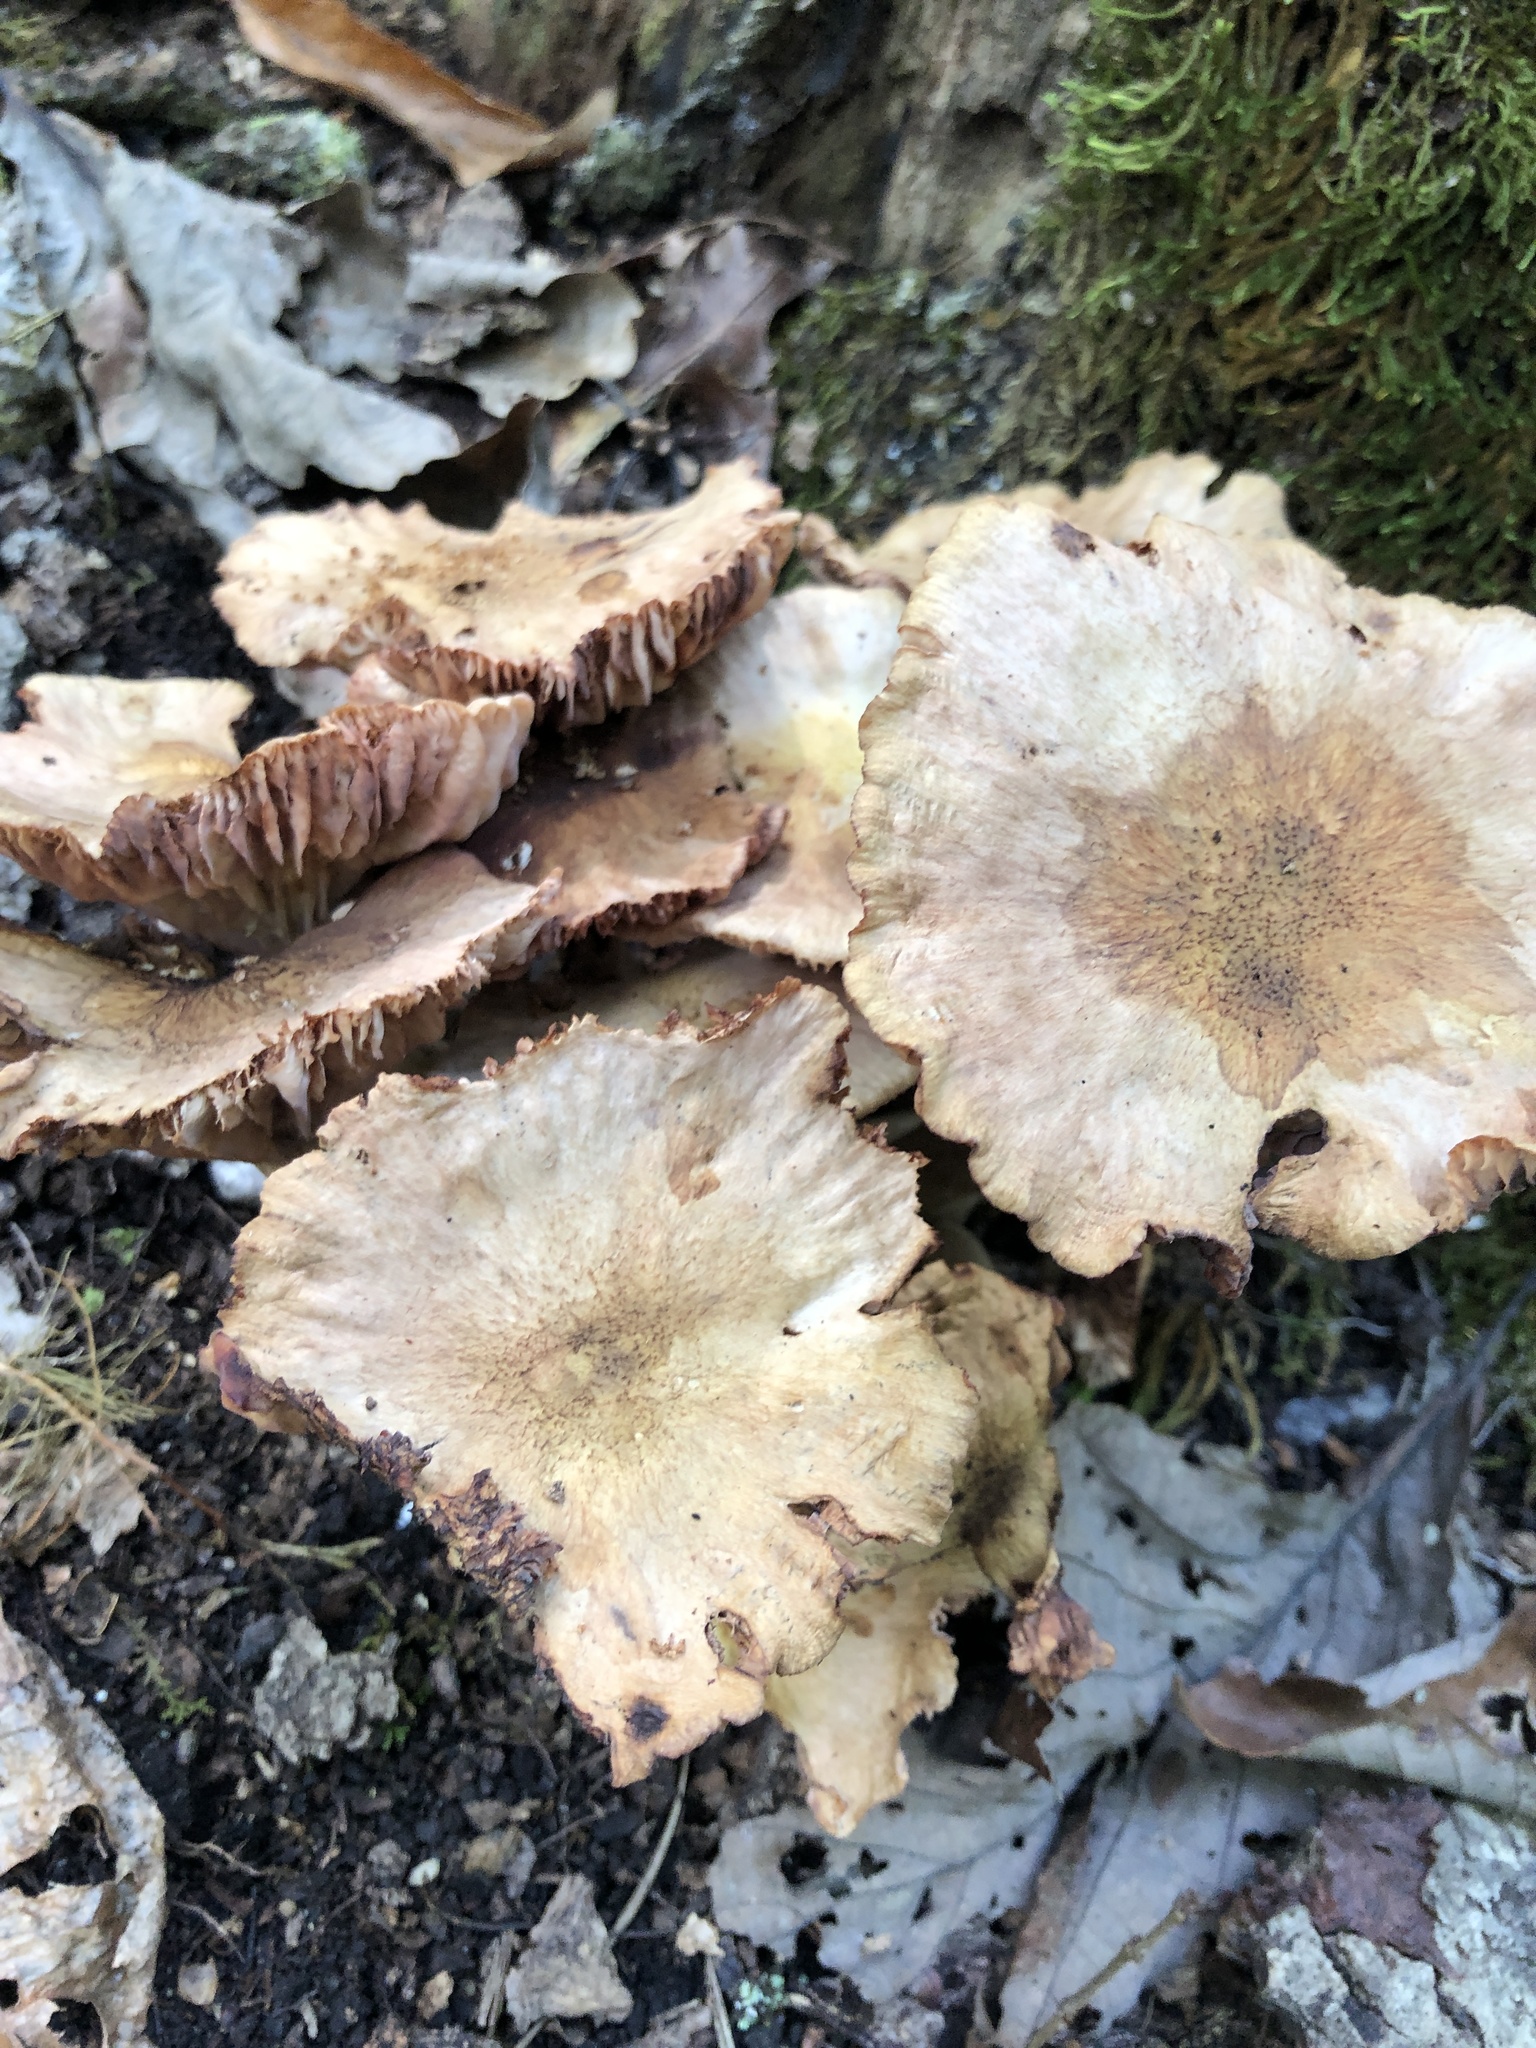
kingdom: Fungi
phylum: Basidiomycota
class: Agaricomycetes
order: Agaricales
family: Physalacriaceae
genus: Desarmillaria
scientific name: Desarmillaria caespitosa
